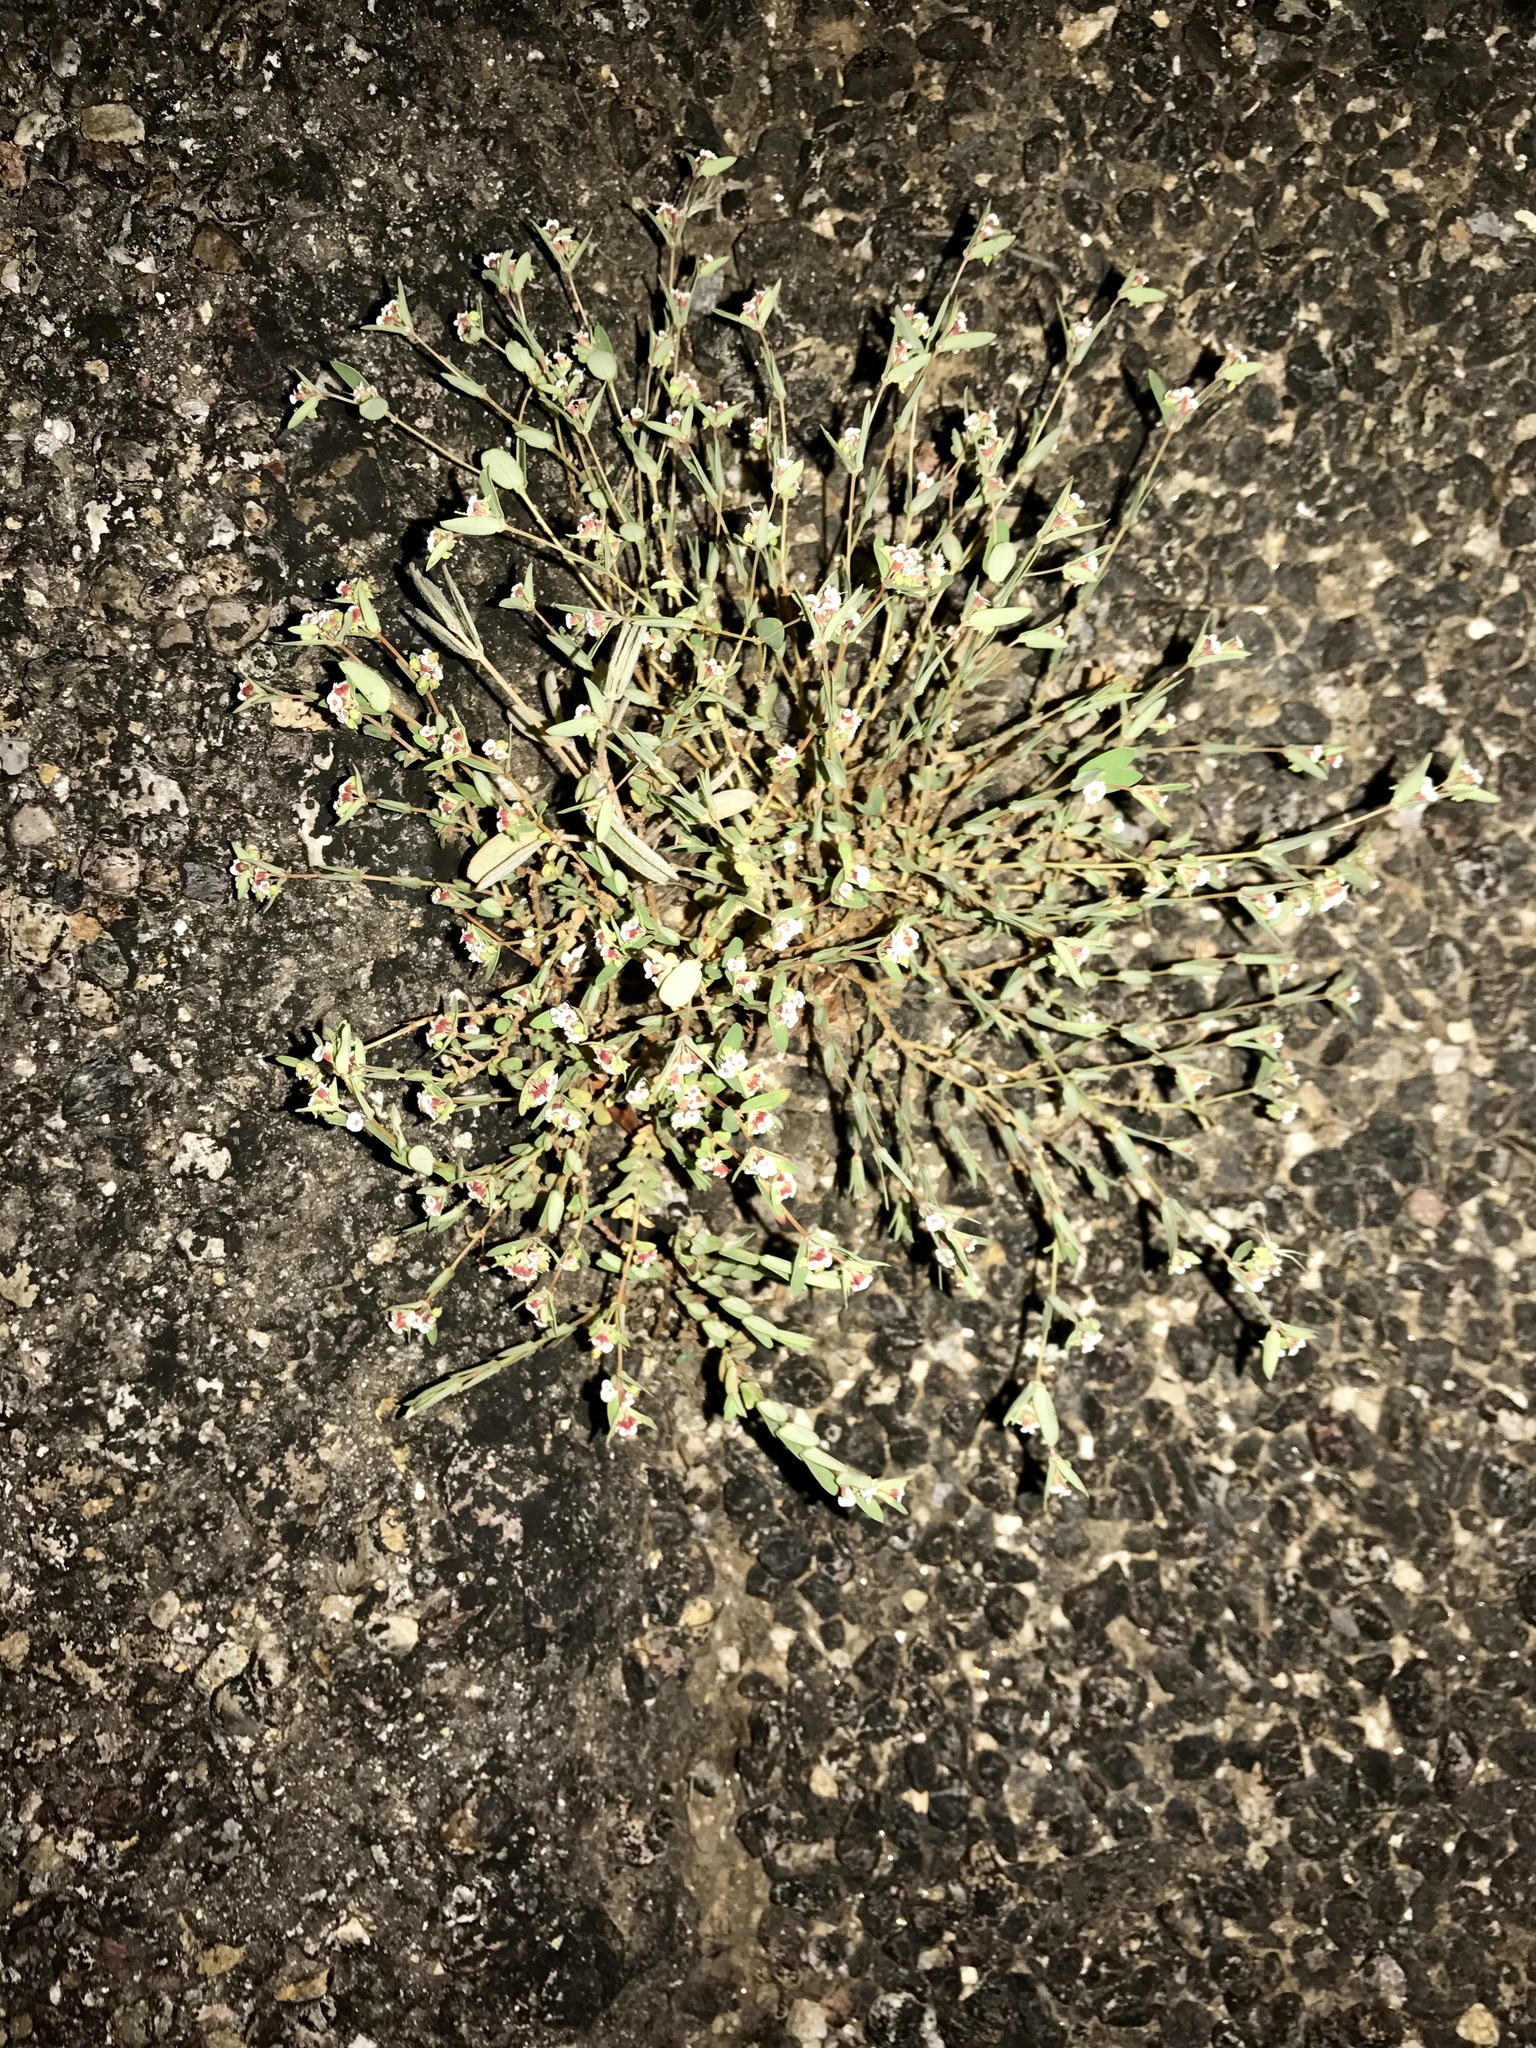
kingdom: Plantae
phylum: Tracheophyta
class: Magnoliopsida
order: Malpighiales
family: Euphorbiaceae
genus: Euphorbia
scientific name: Euphorbia capitellata
